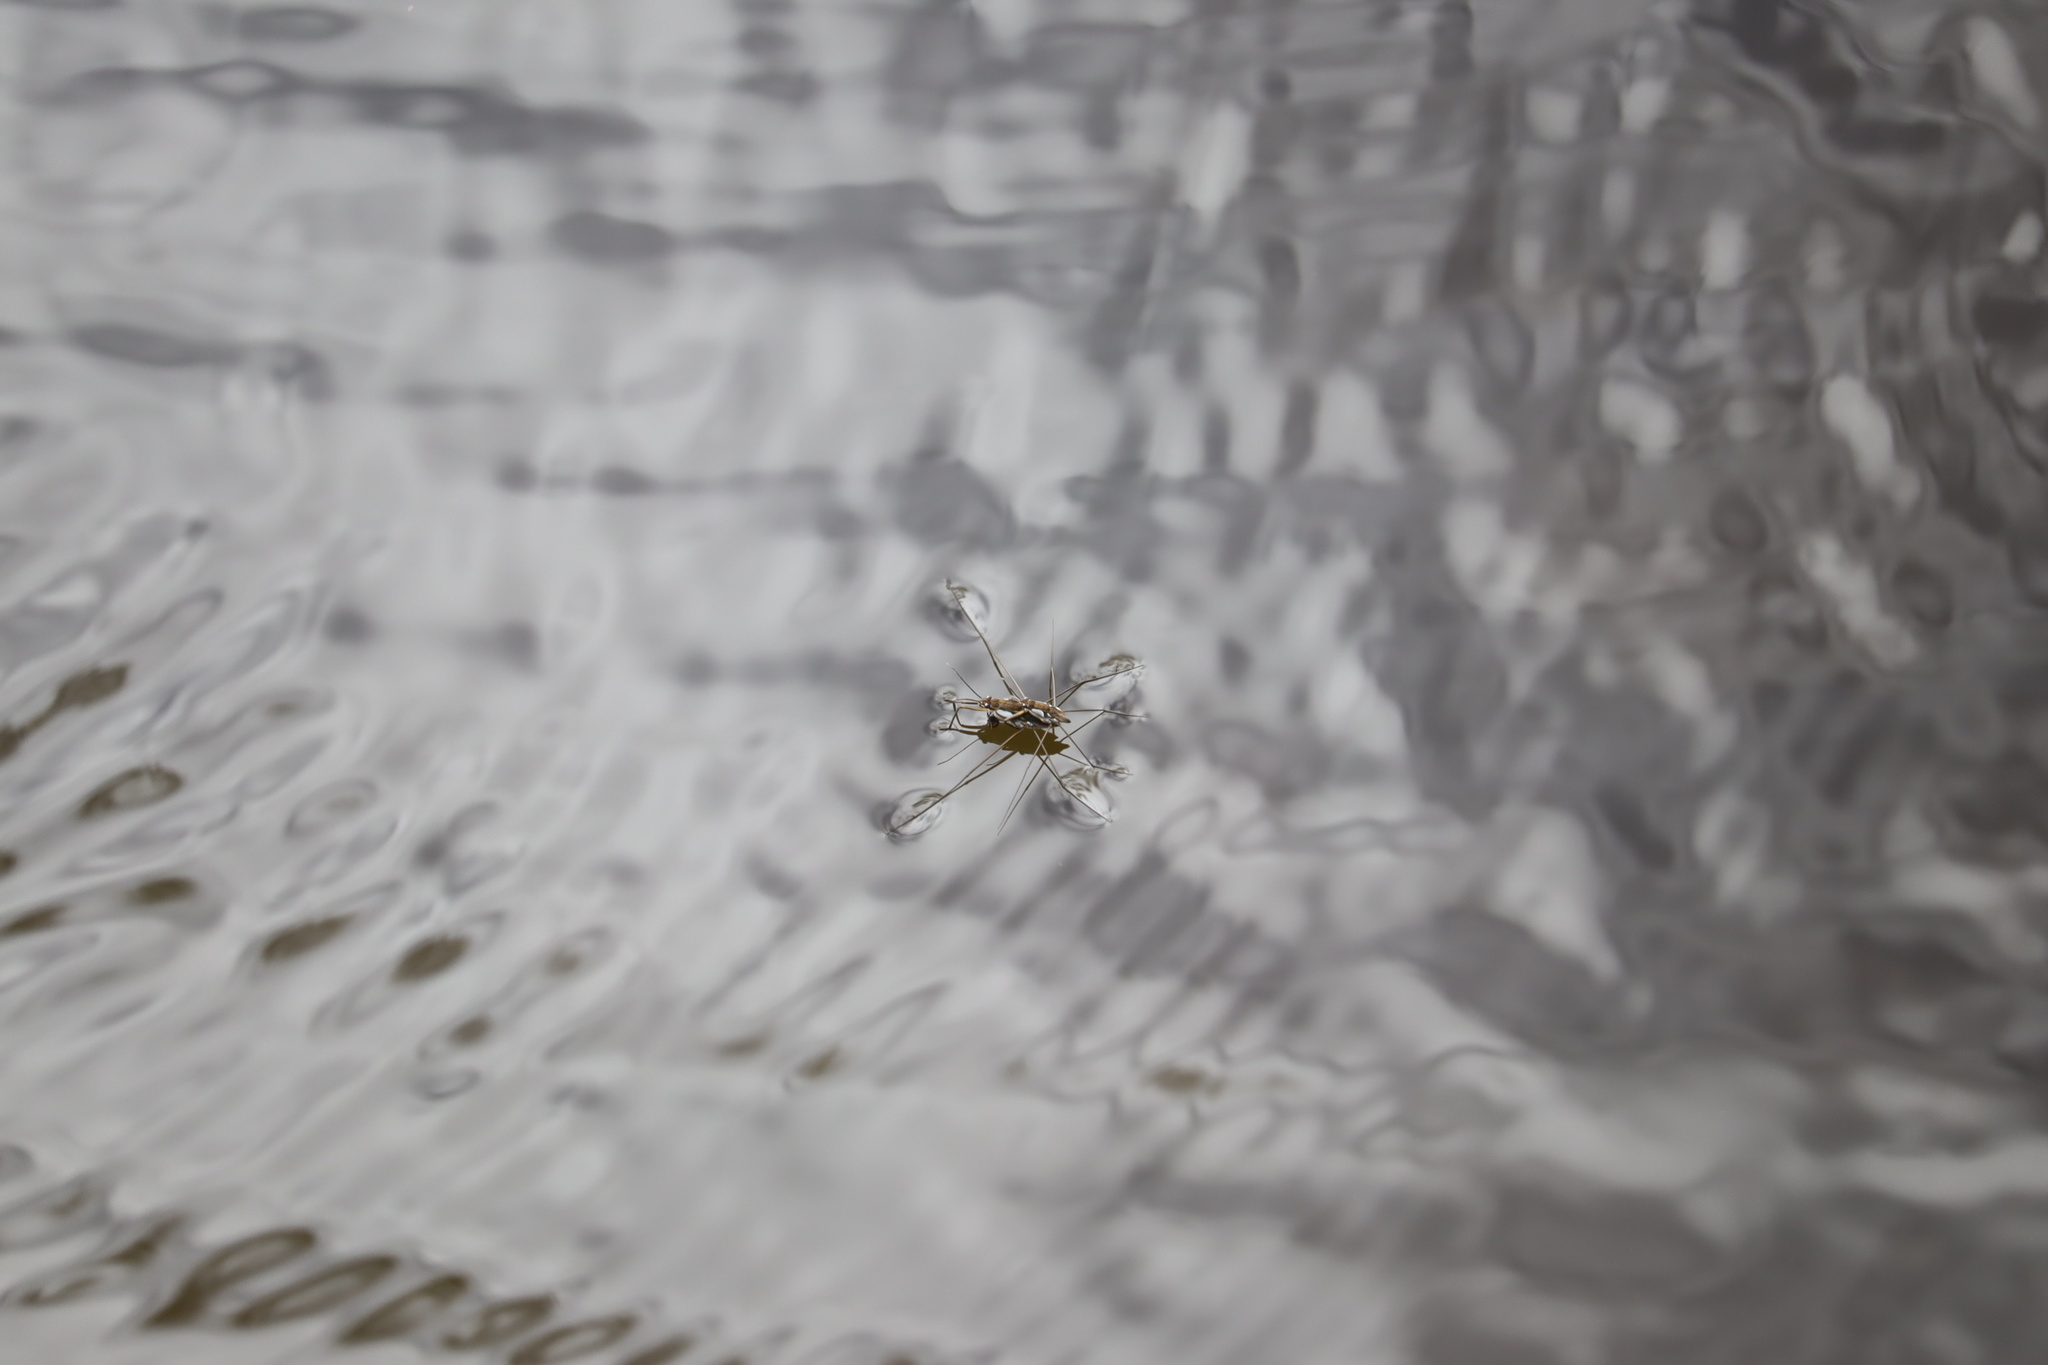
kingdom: Animalia
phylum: Arthropoda
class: Insecta
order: Hemiptera
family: Gerridae
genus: Tenagogerris
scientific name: Tenagogerris euphrosyne
